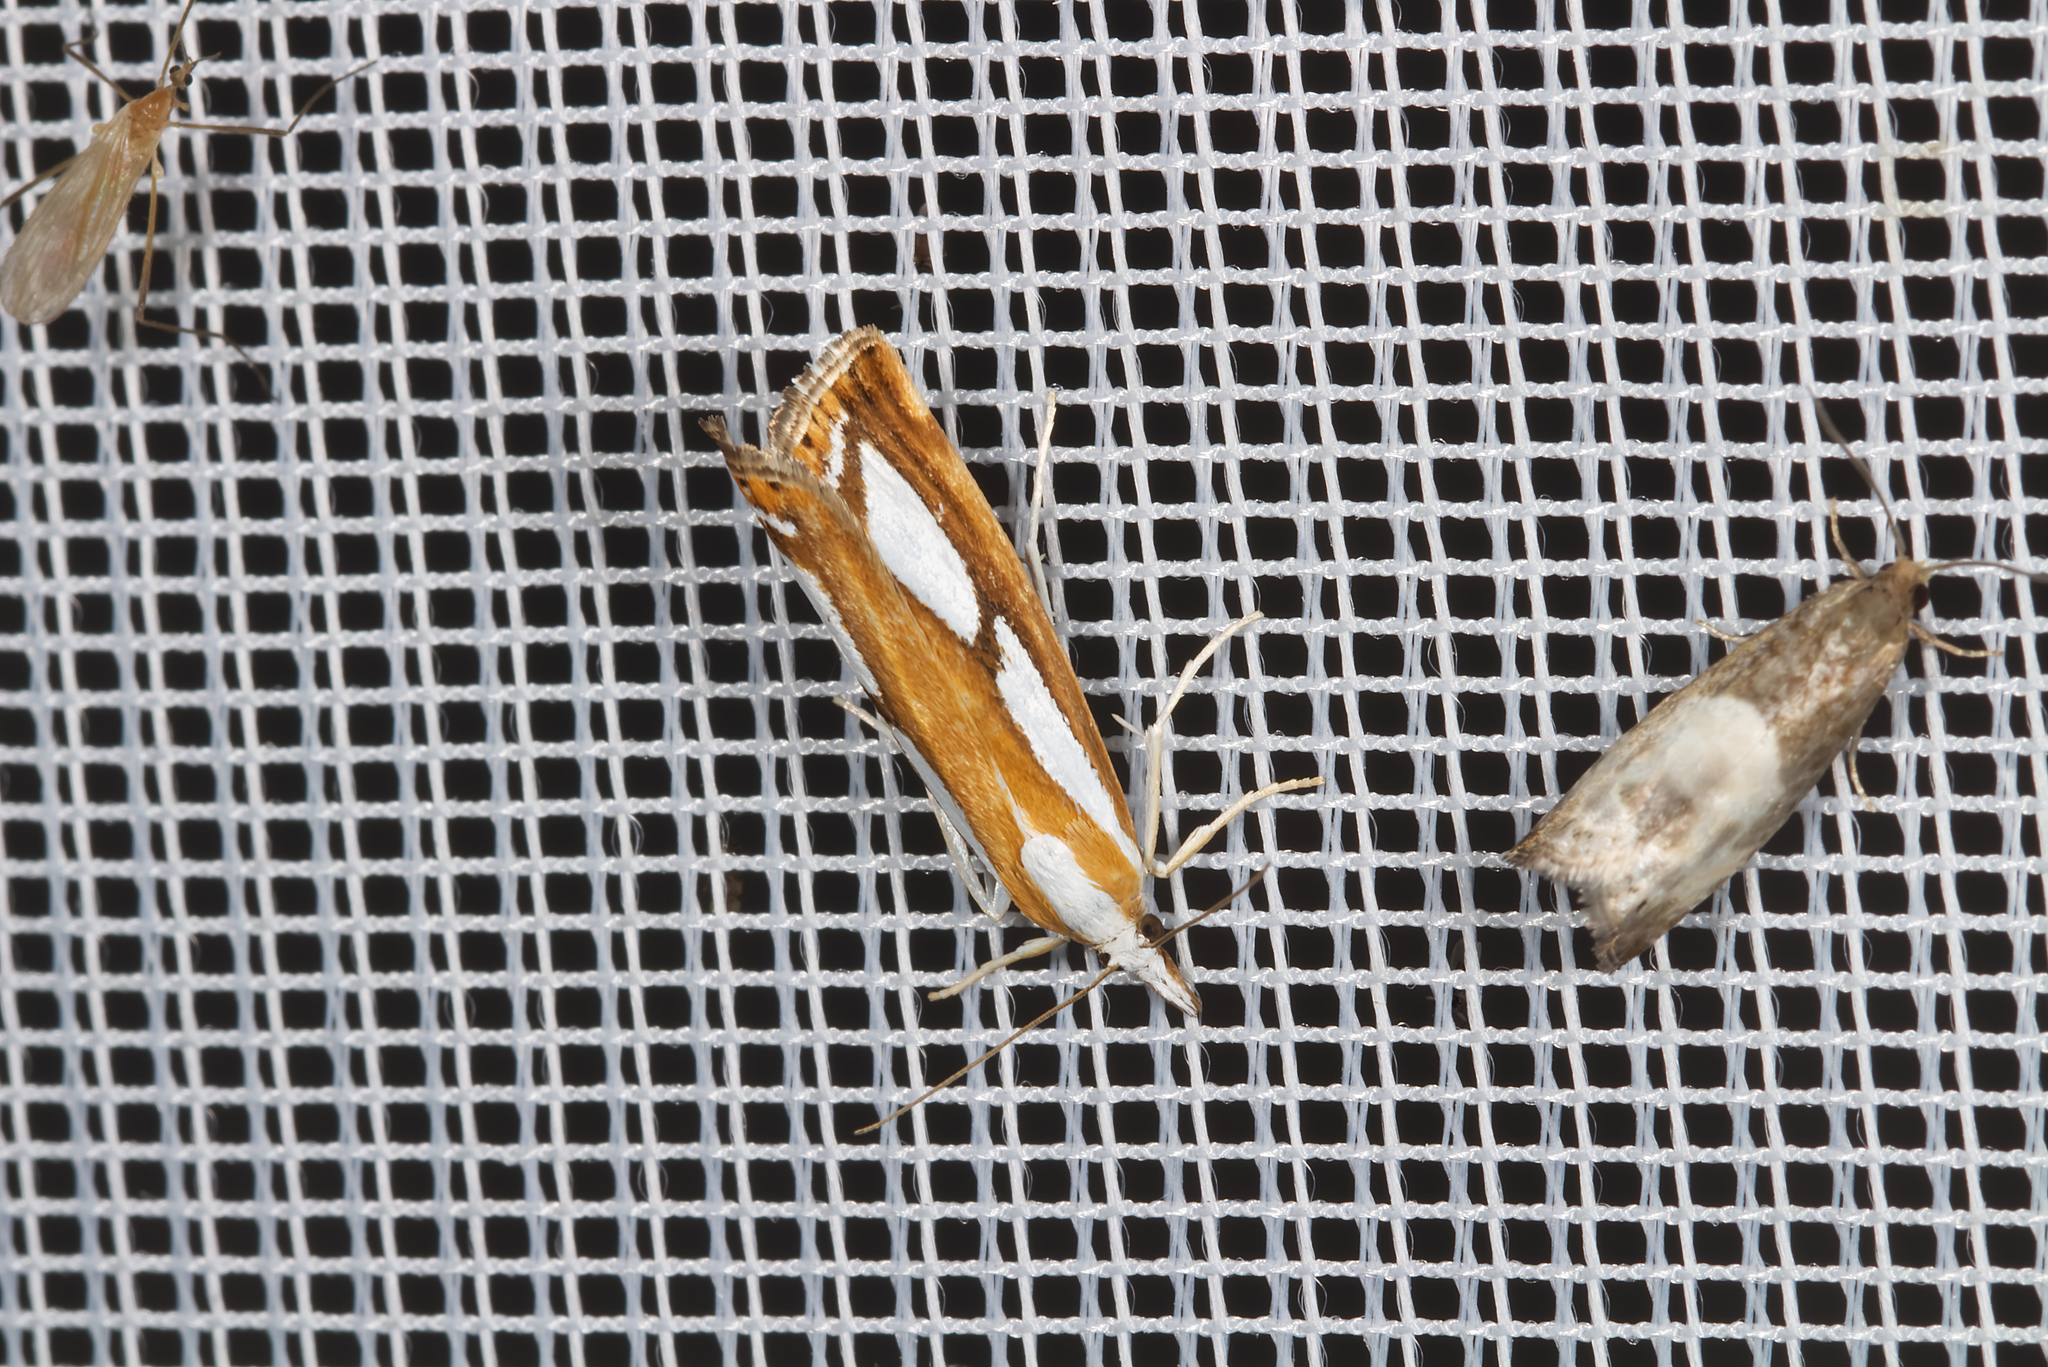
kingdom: Animalia
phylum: Arthropoda
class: Insecta
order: Lepidoptera
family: Crambidae
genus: Catoptria
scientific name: Catoptria
